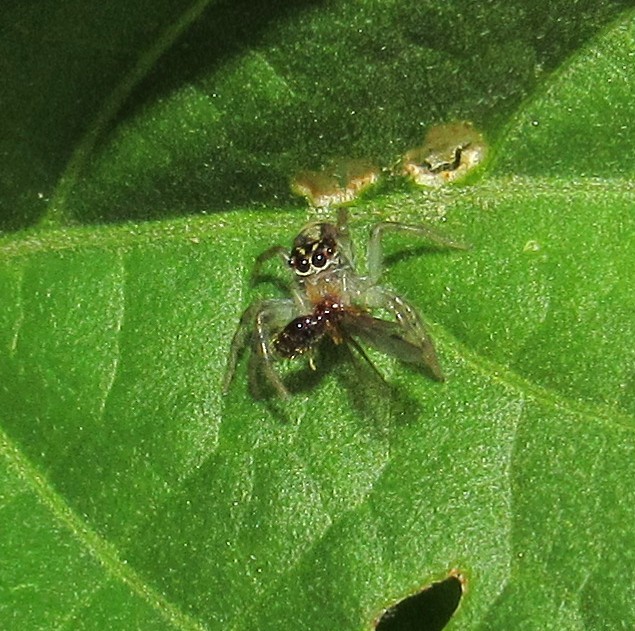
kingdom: Animalia
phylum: Arthropoda
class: Arachnida
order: Araneae
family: Salticidae
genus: Frigga
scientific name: Frigga quintensis
